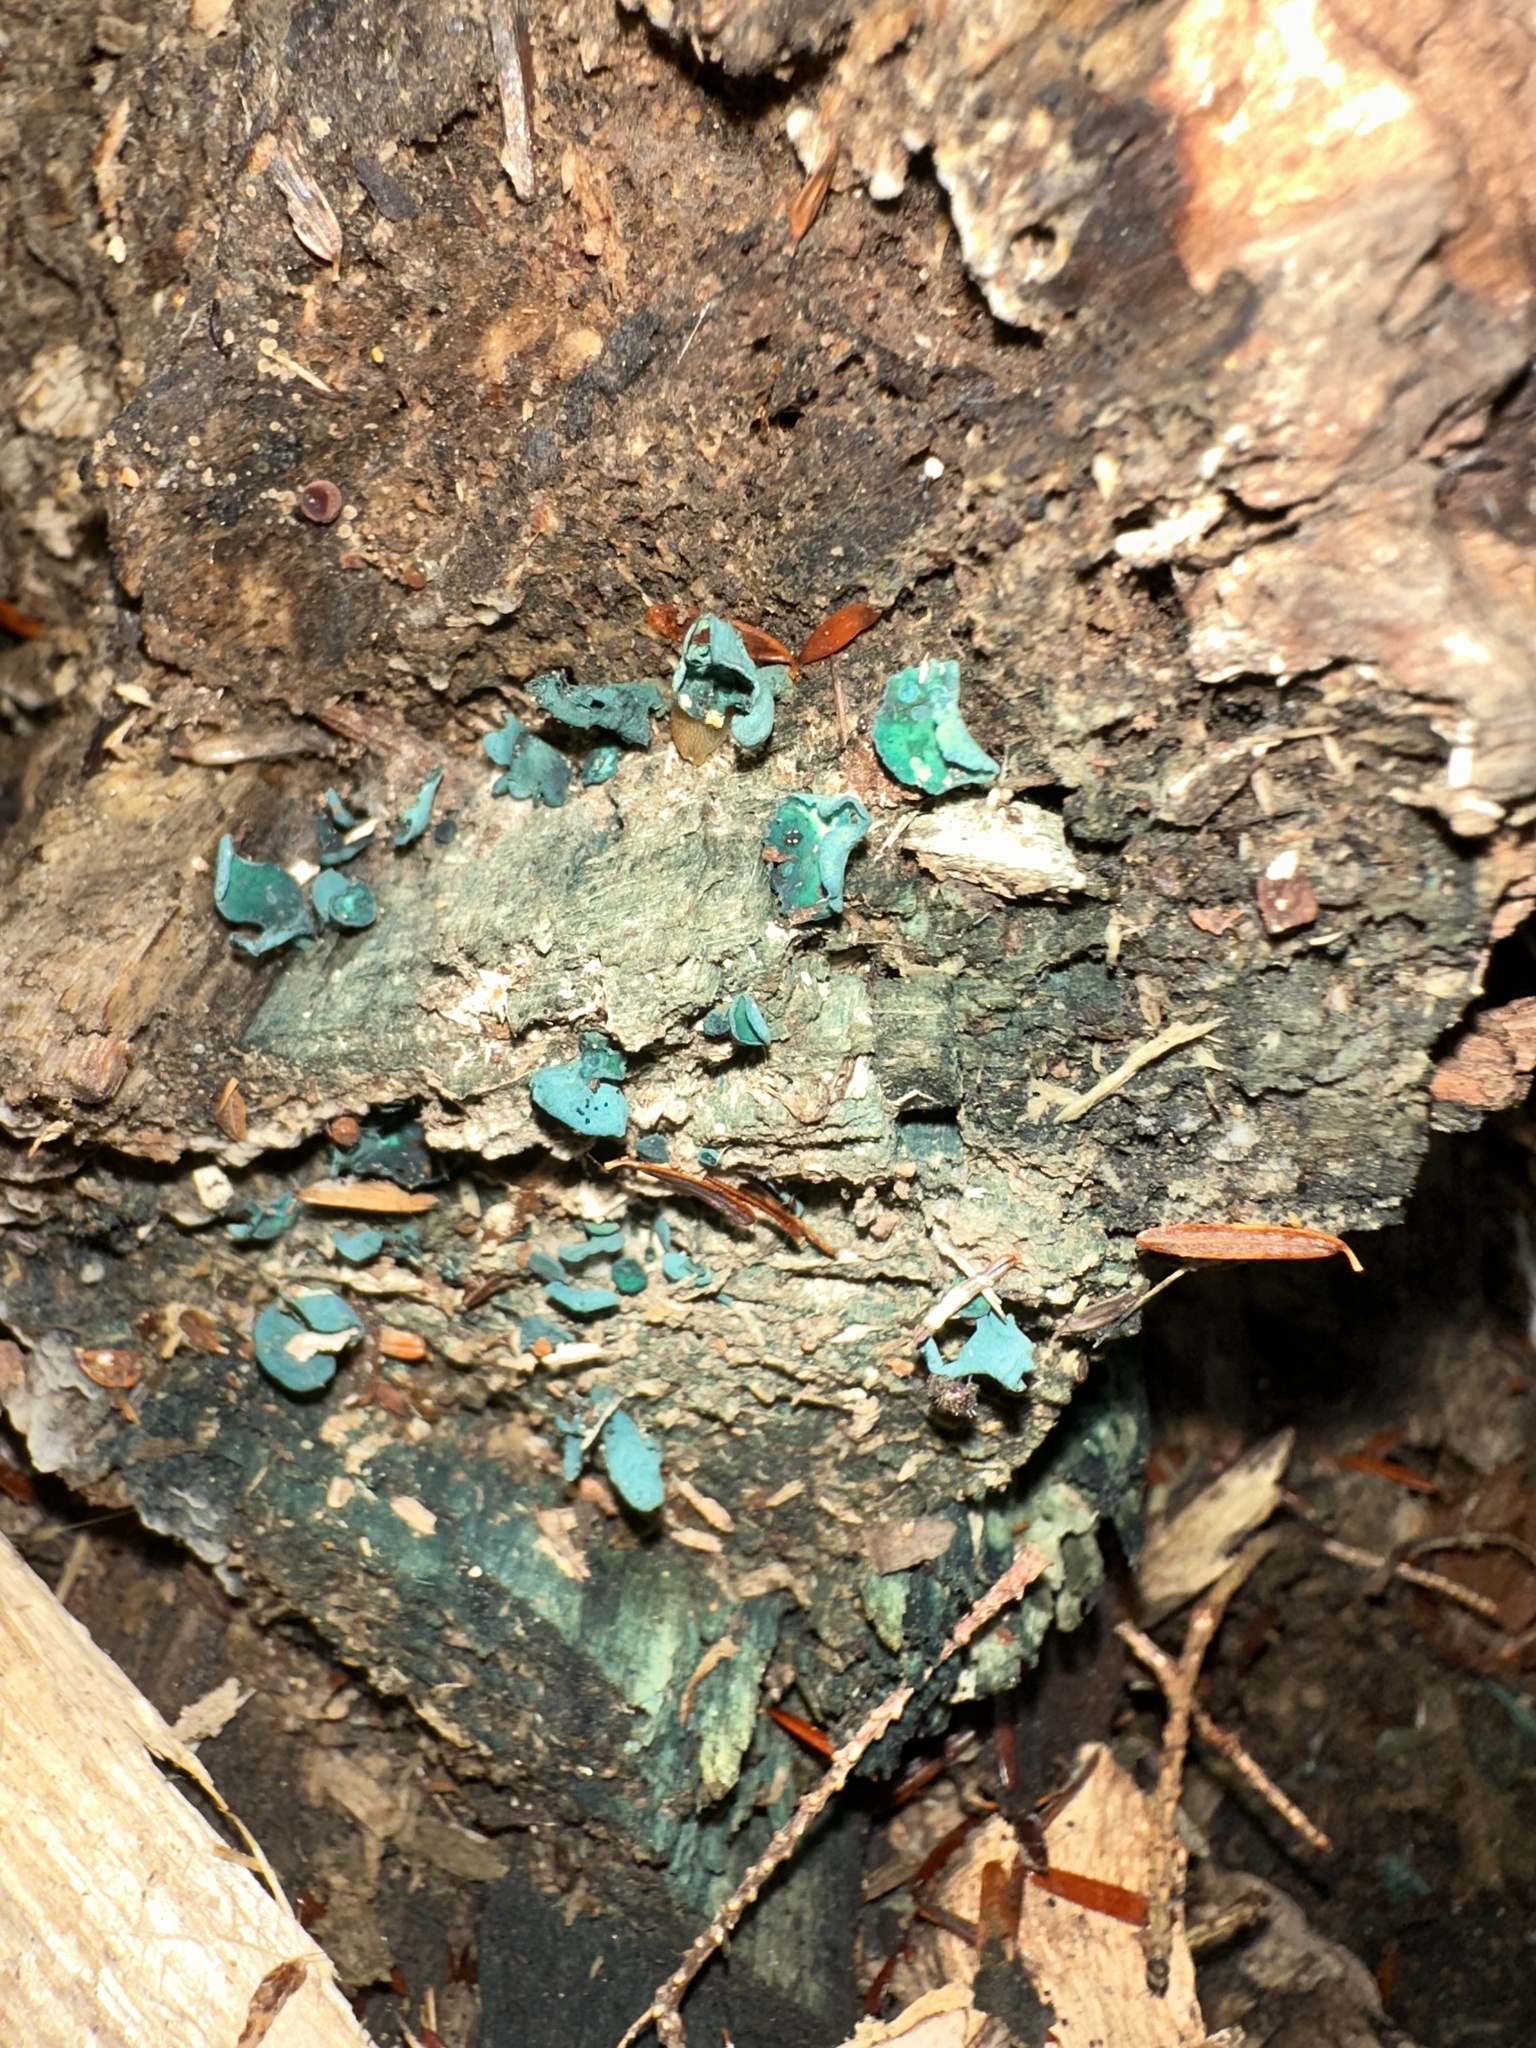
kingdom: Fungi
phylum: Ascomycota
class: Leotiomycetes
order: Helotiales
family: Chlorociboriaceae
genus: Chlorociboria
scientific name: Chlorociboria aeruginascens
